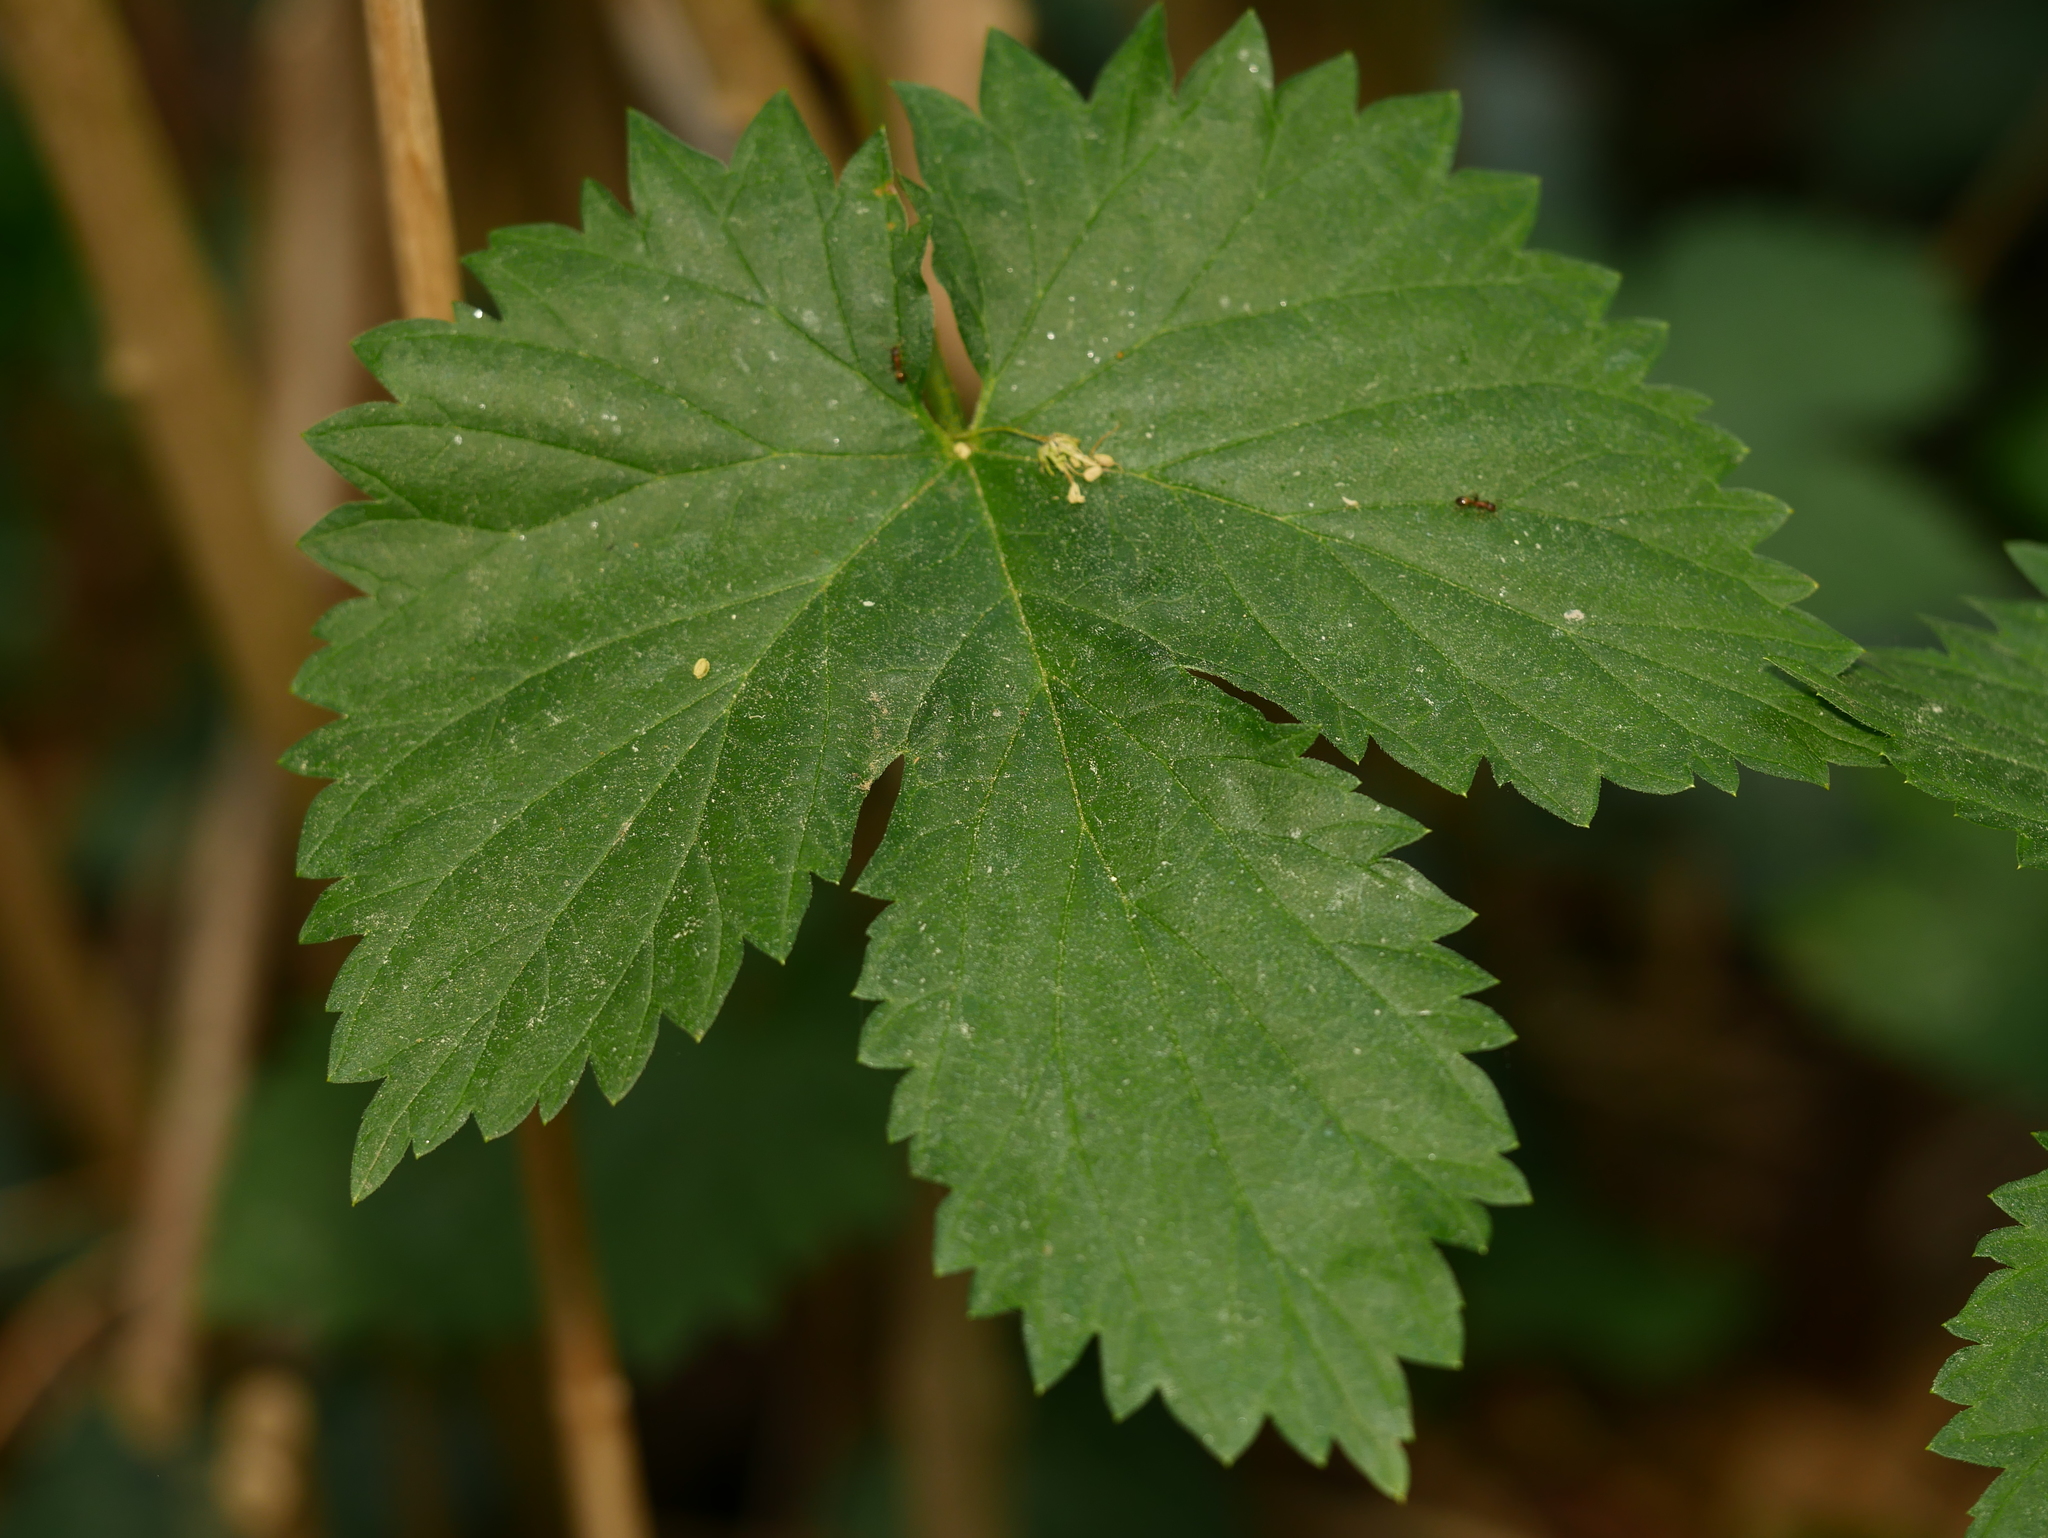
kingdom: Plantae
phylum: Tracheophyta
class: Magnoliopsida
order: Rosales
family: Cannabaceae
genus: Humulus
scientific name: Humulus lupulus
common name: Hop
